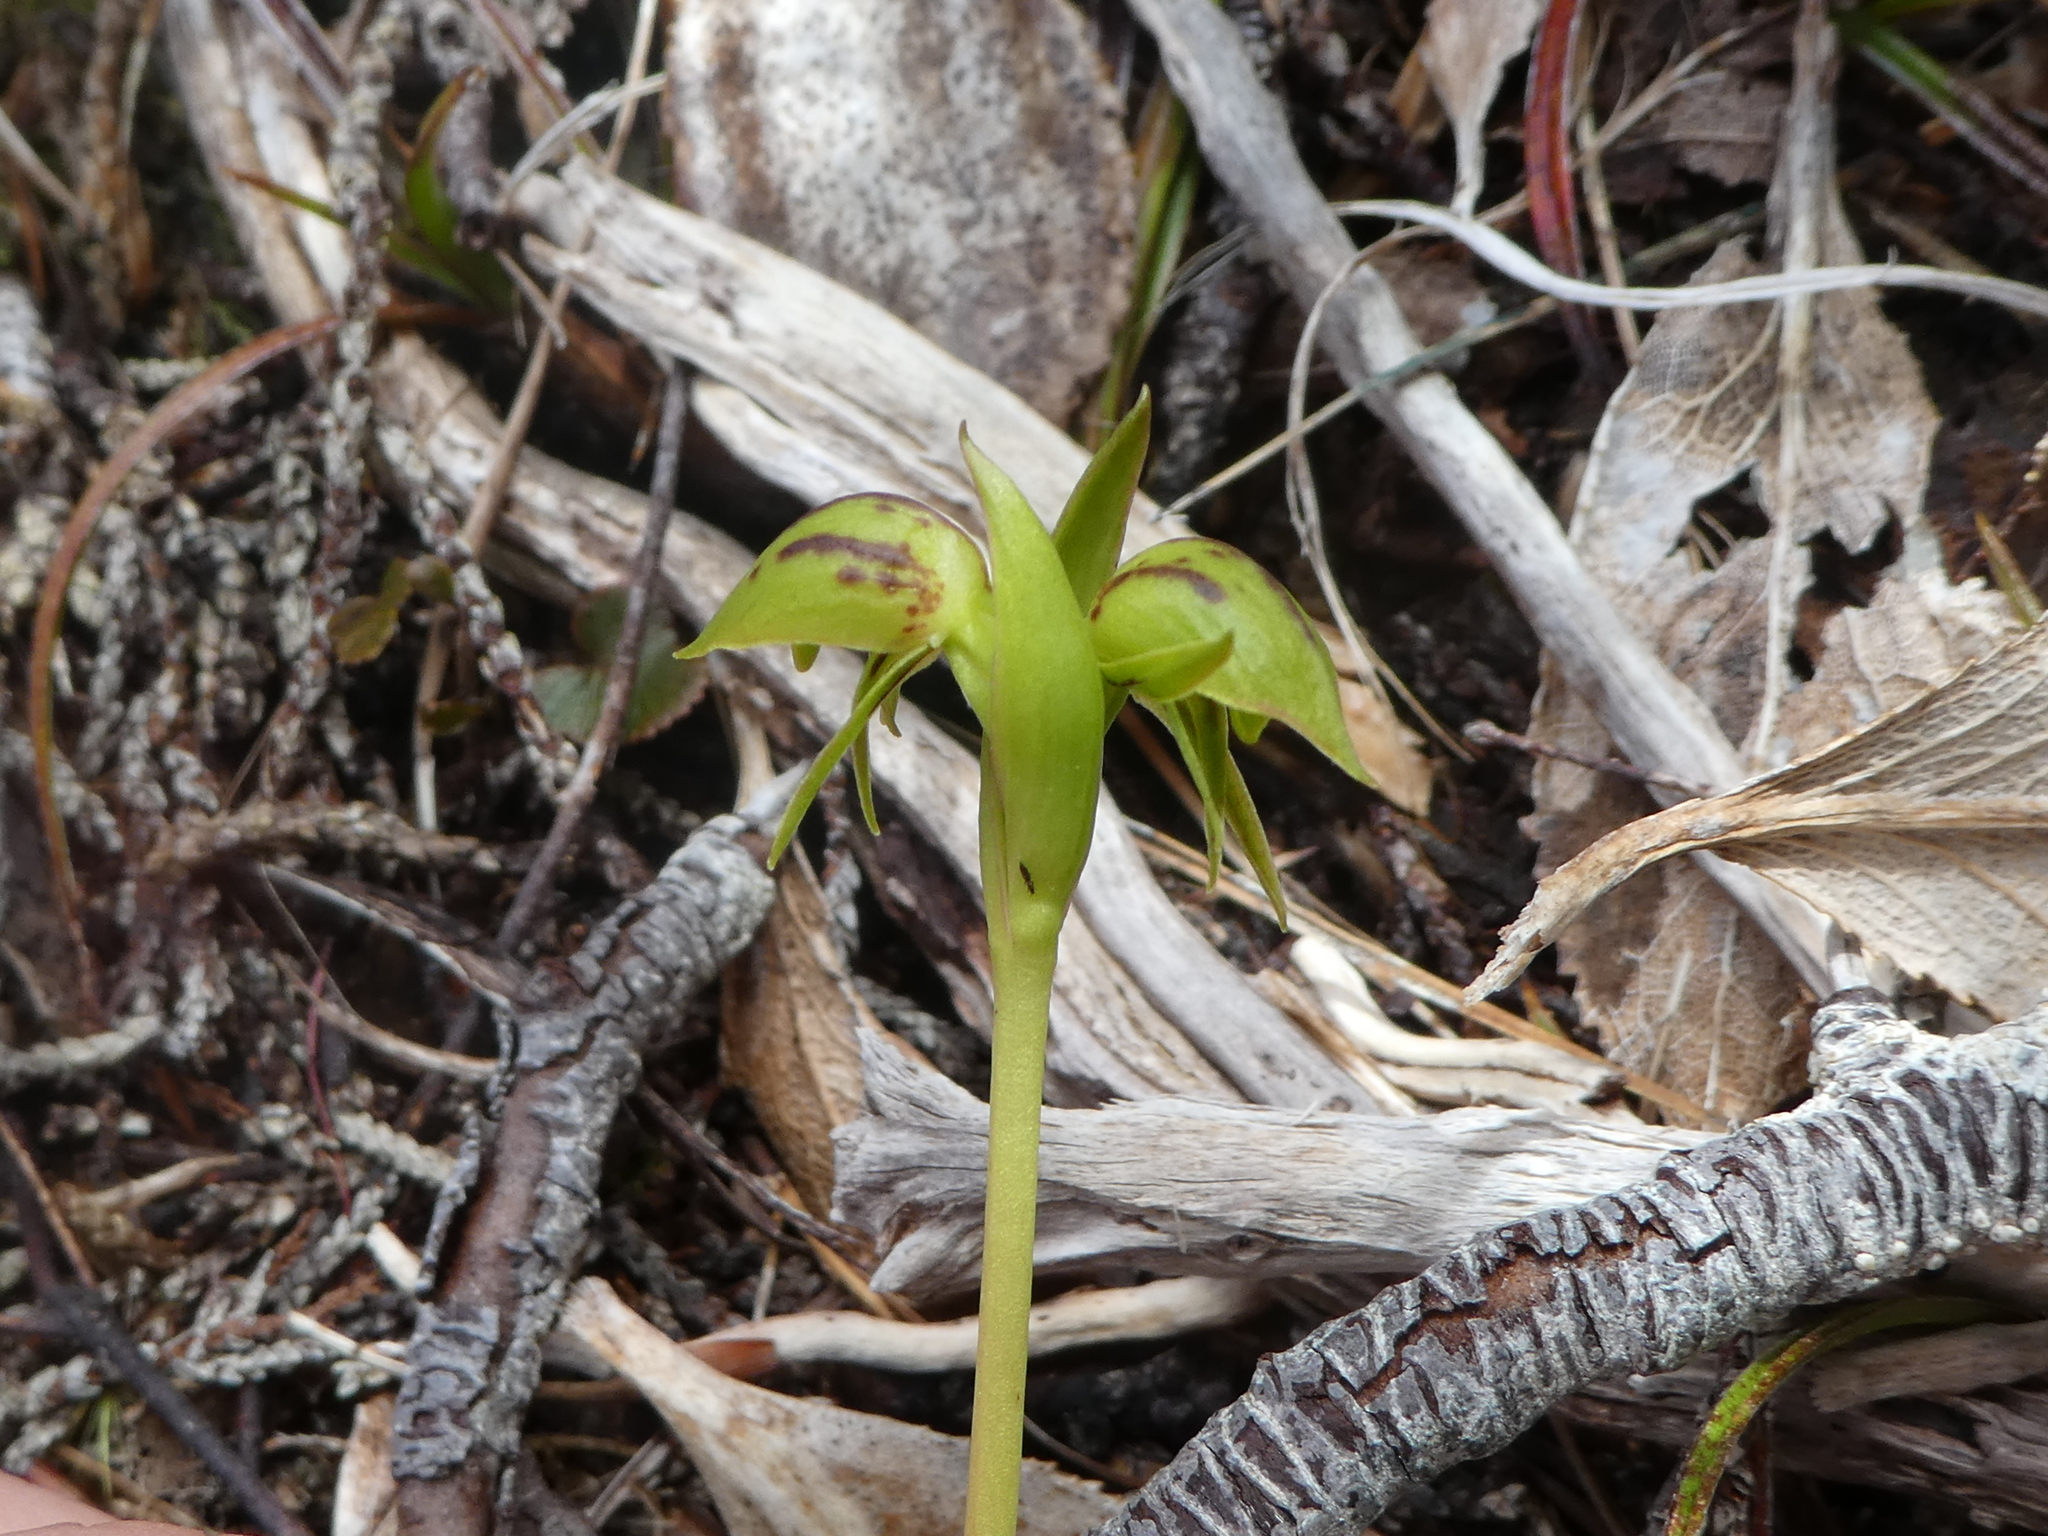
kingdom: Plantae
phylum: Tracheophyta
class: Liliopsida
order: Asparagales
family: Orchidaceae
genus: Waireia
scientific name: Waireia stenopetala
